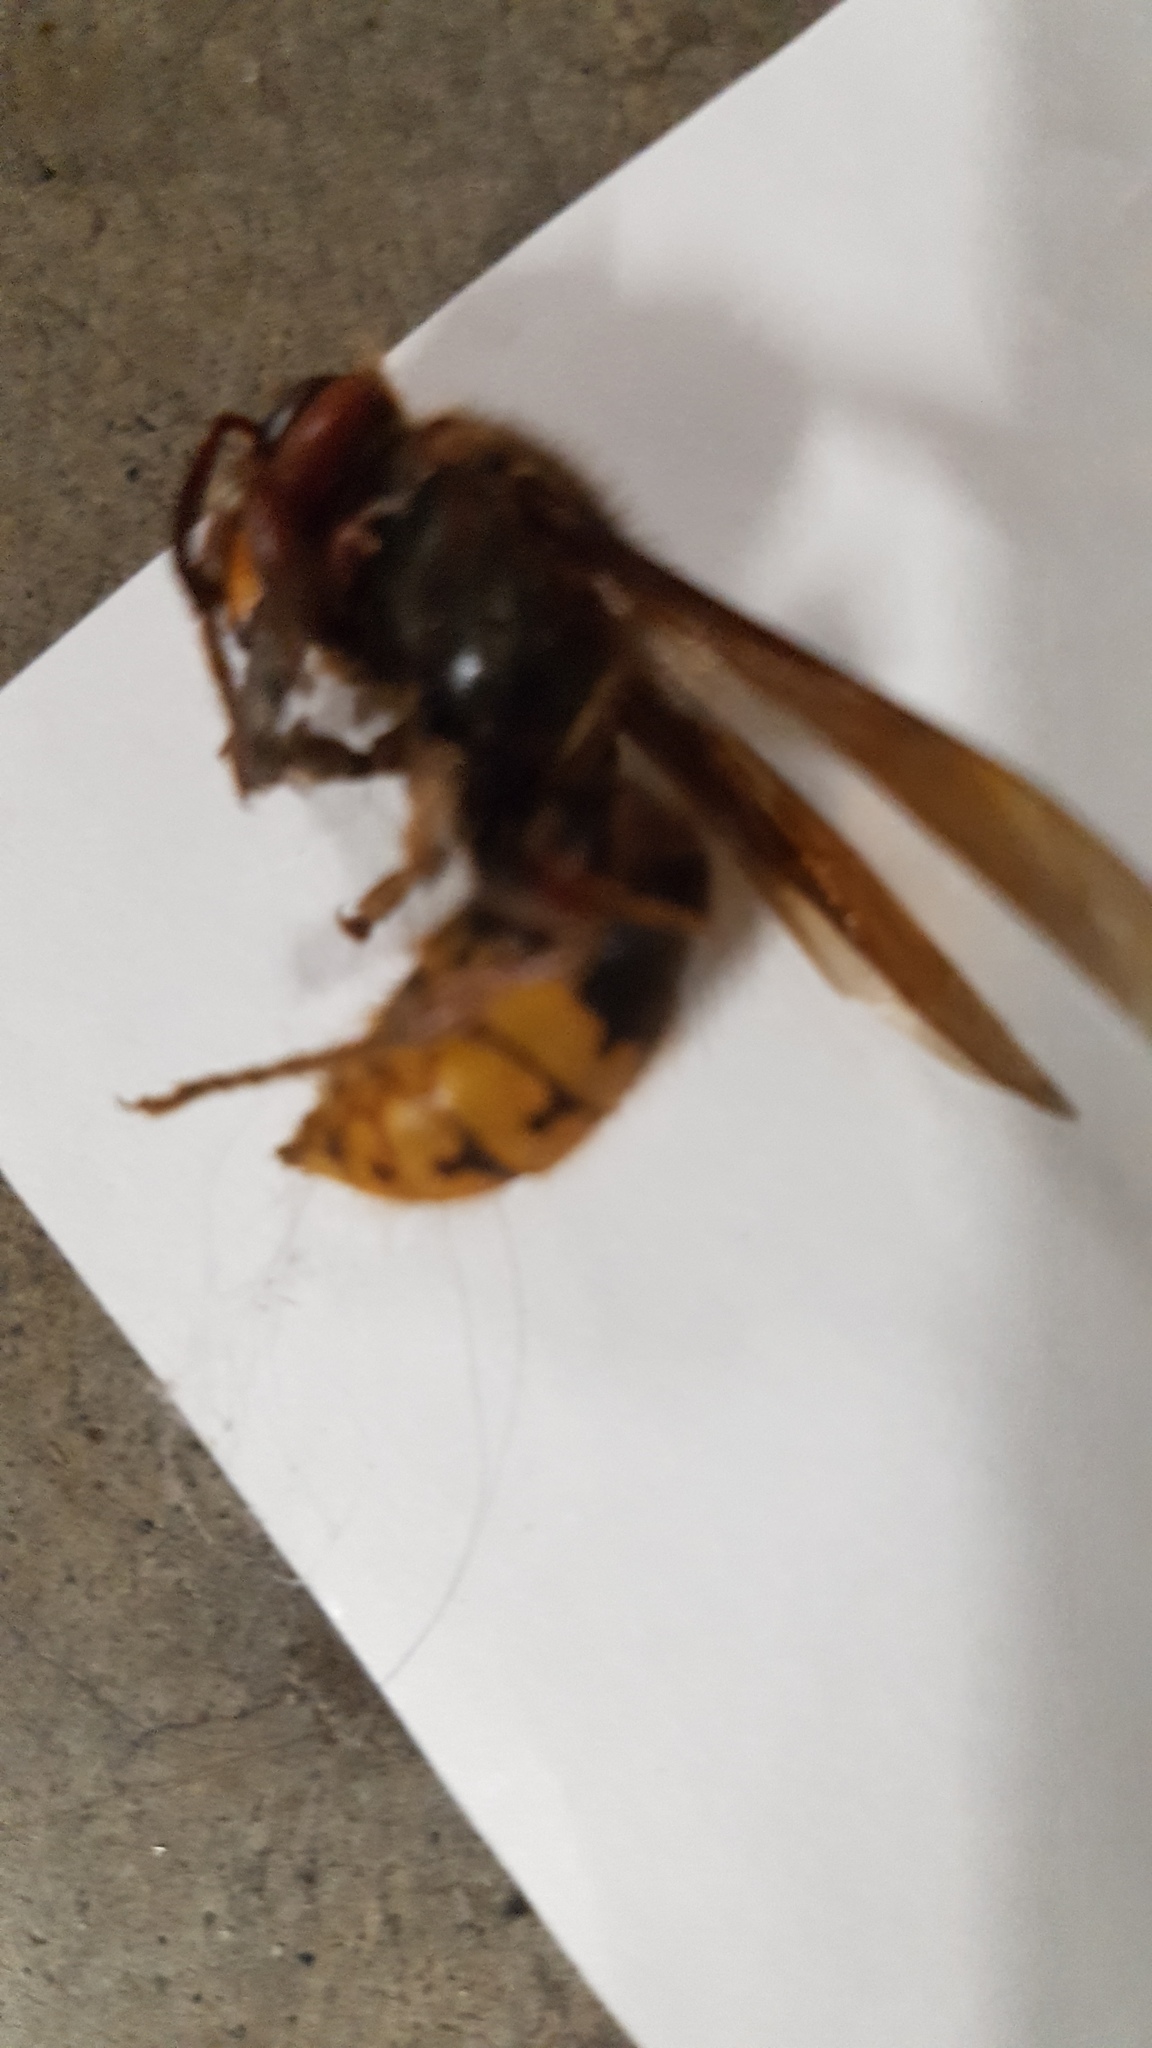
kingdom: Animalia
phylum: Arthropoda
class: Insecta
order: Hymenoptera
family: Vespidae
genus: Vespa
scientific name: Vespa crabro
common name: Hornet
